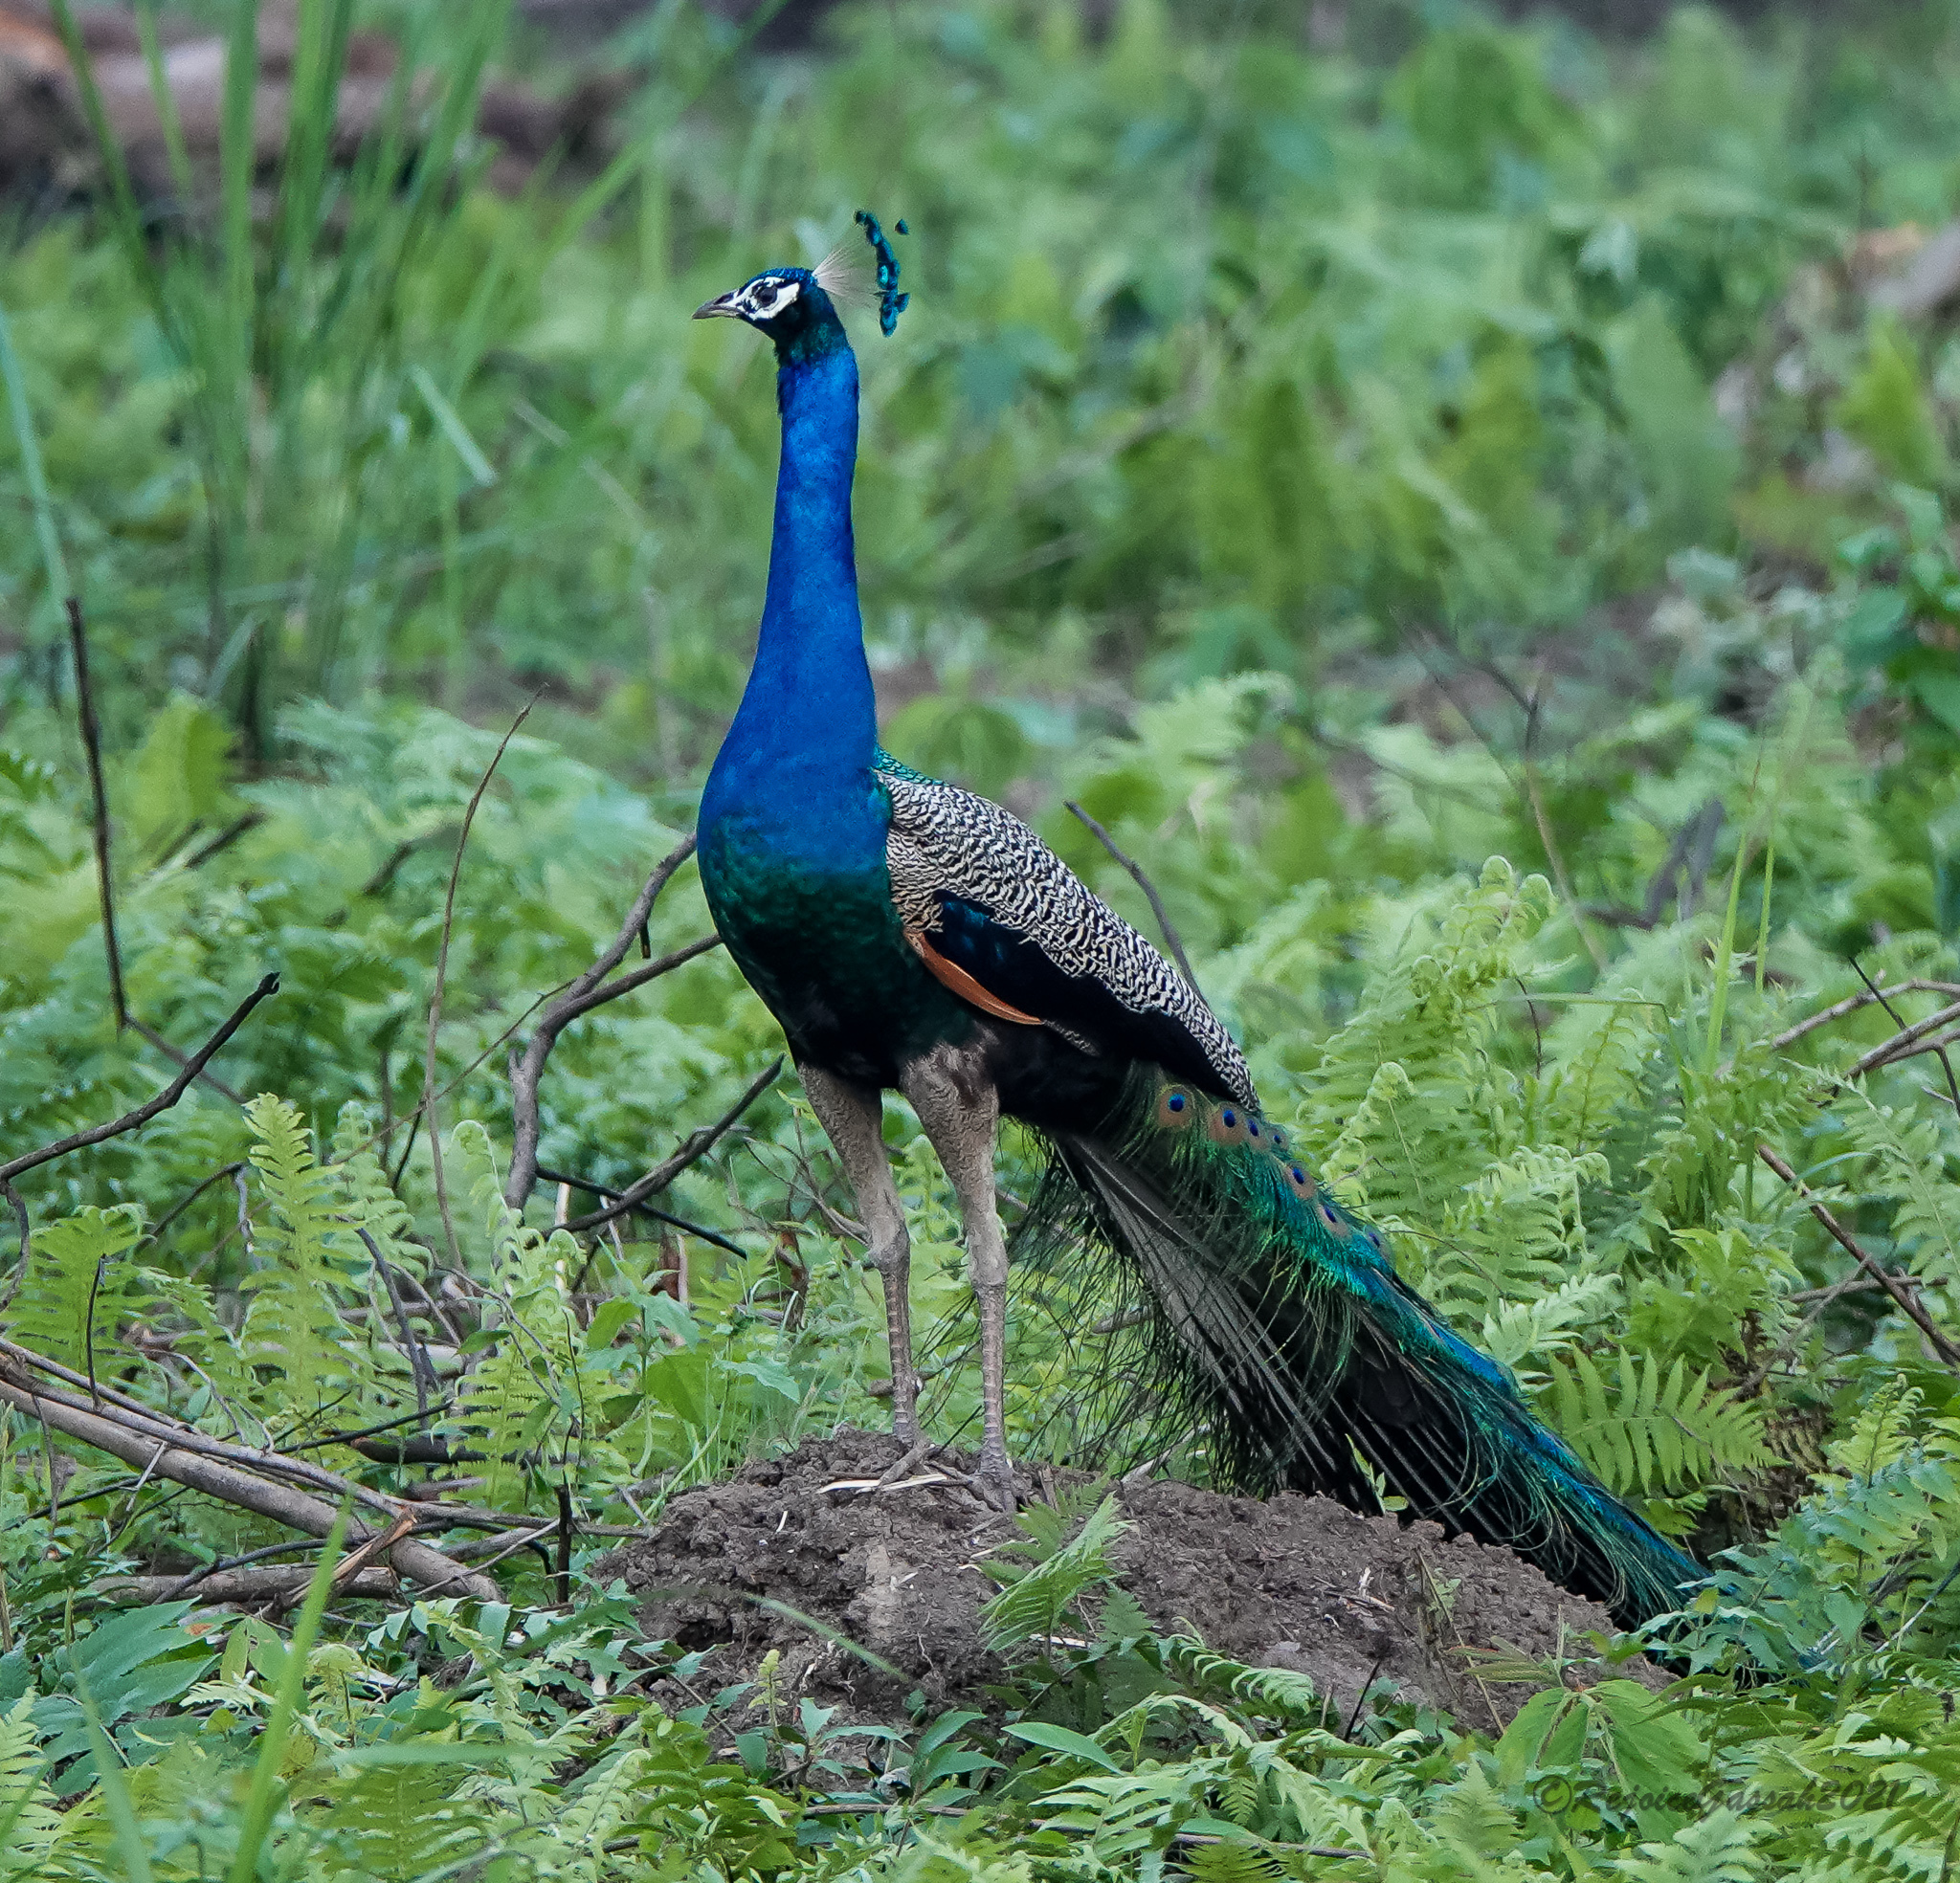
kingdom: Animalia
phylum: Chordata
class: Aves
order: Galliformes
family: Phasianidae
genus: Pavo
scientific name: Pavo cristatus
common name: Indian peafowl
